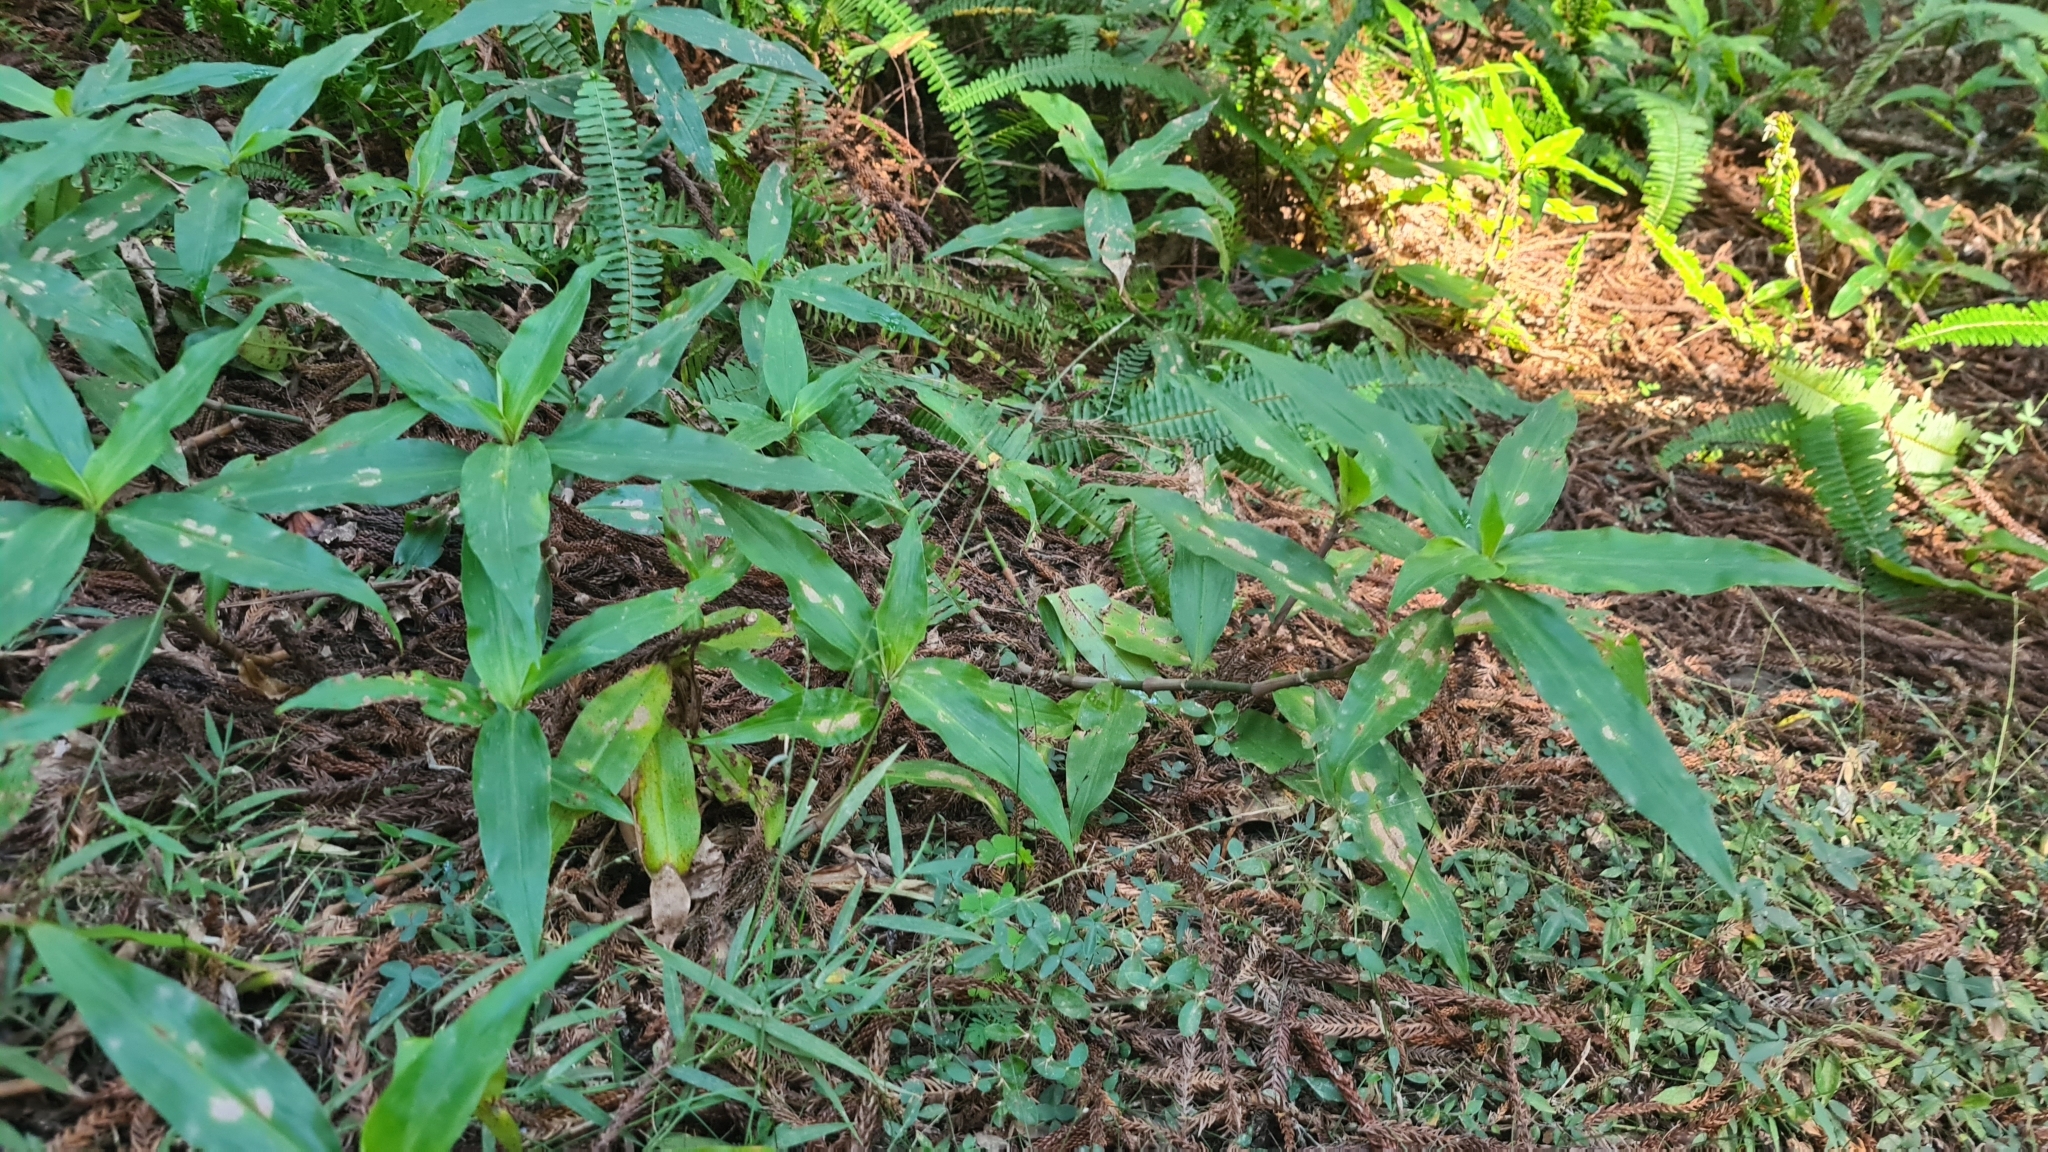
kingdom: Plantae
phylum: Tracheophyta
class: Liliopsida
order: Commelinales
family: Commelinaceae
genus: Pollia
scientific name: Pollia crispata
